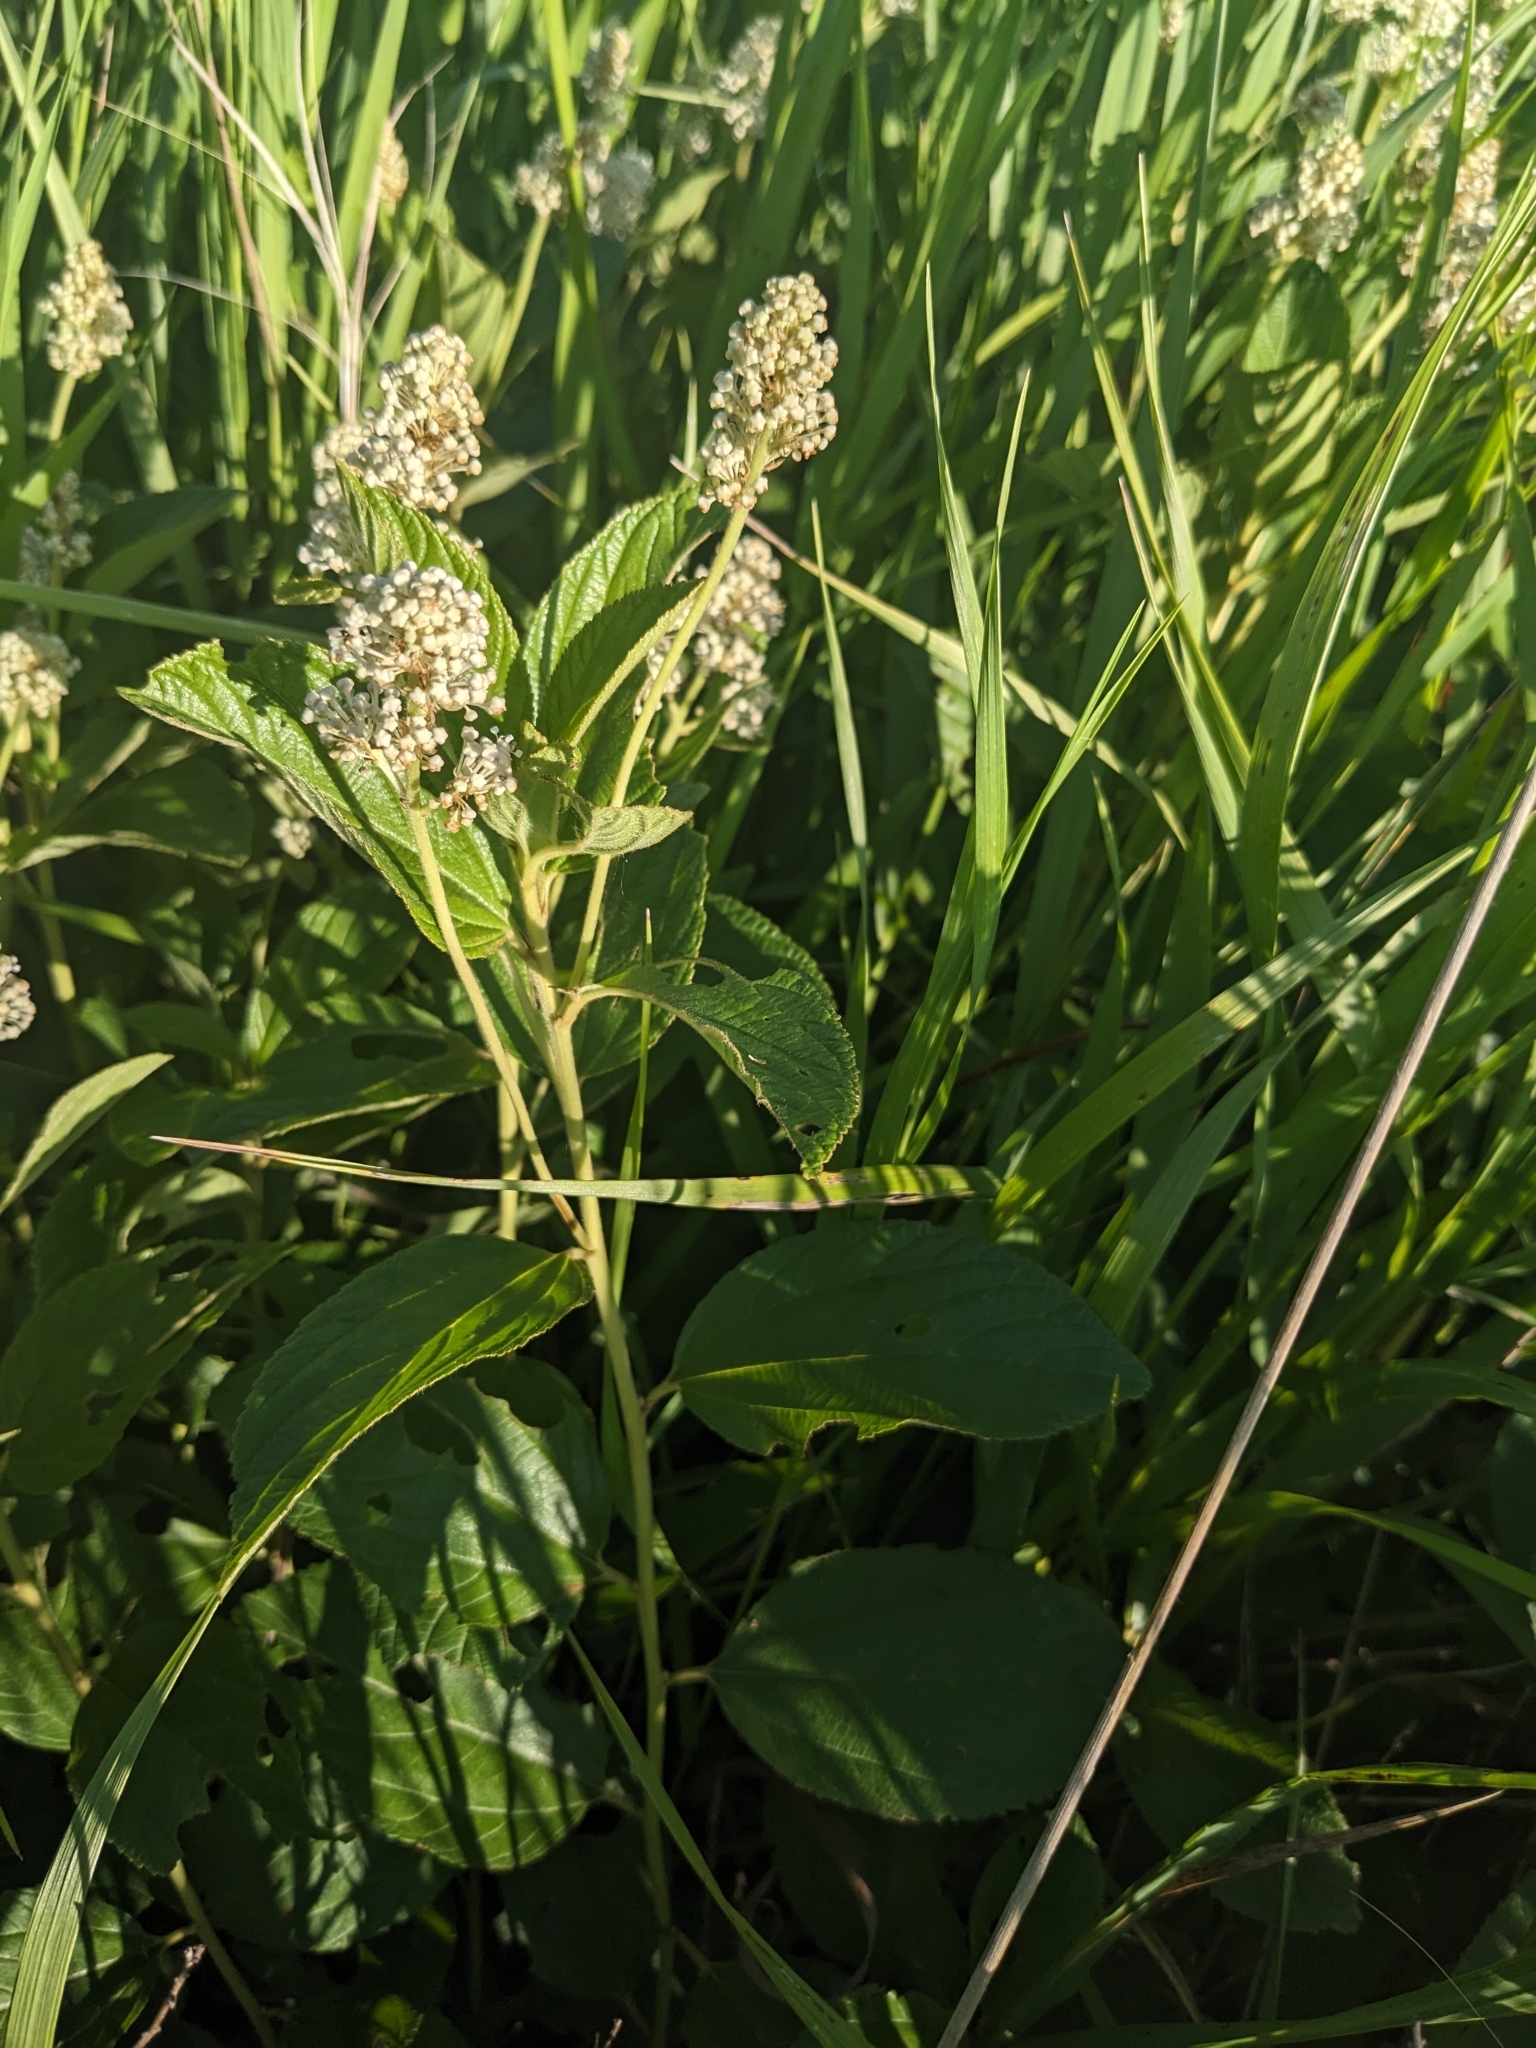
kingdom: Plantae
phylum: Tracheophyta
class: Magnoliopsida
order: Rosales
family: Rhamnaceae
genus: Ceanothus
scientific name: Ceanothus americanus
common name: Redroot
